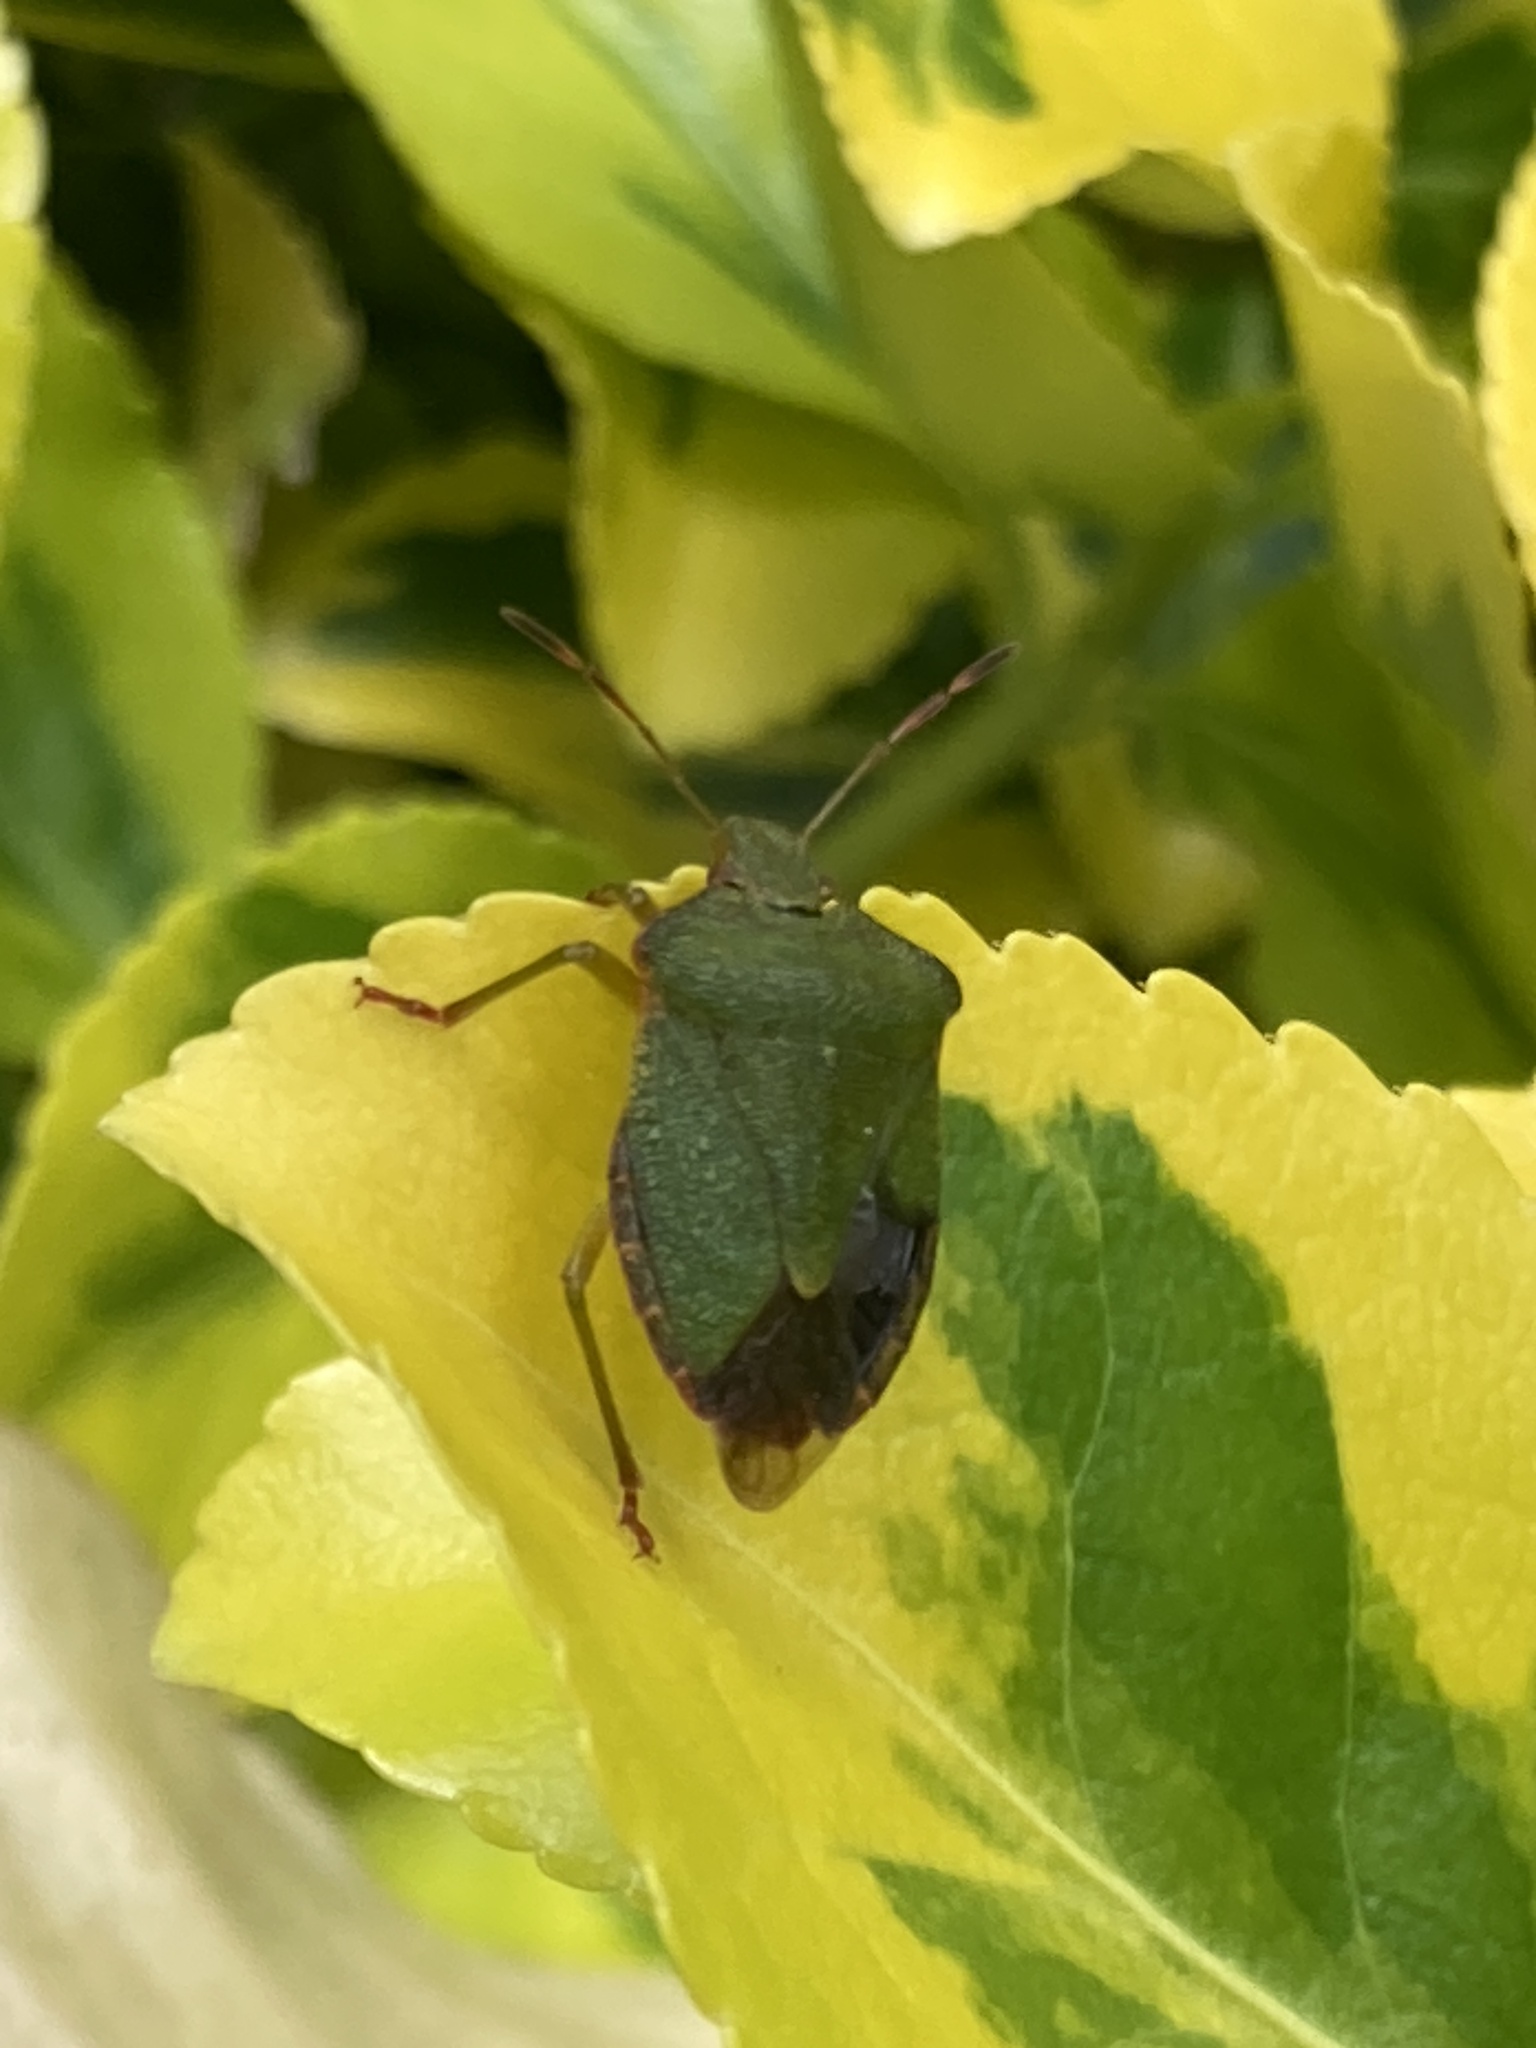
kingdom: Animalia
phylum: Arthropoda
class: Insecta
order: Hemiptera
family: Pentatomidae
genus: Palomena
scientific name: Palomena prasina
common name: Green shieldbug
